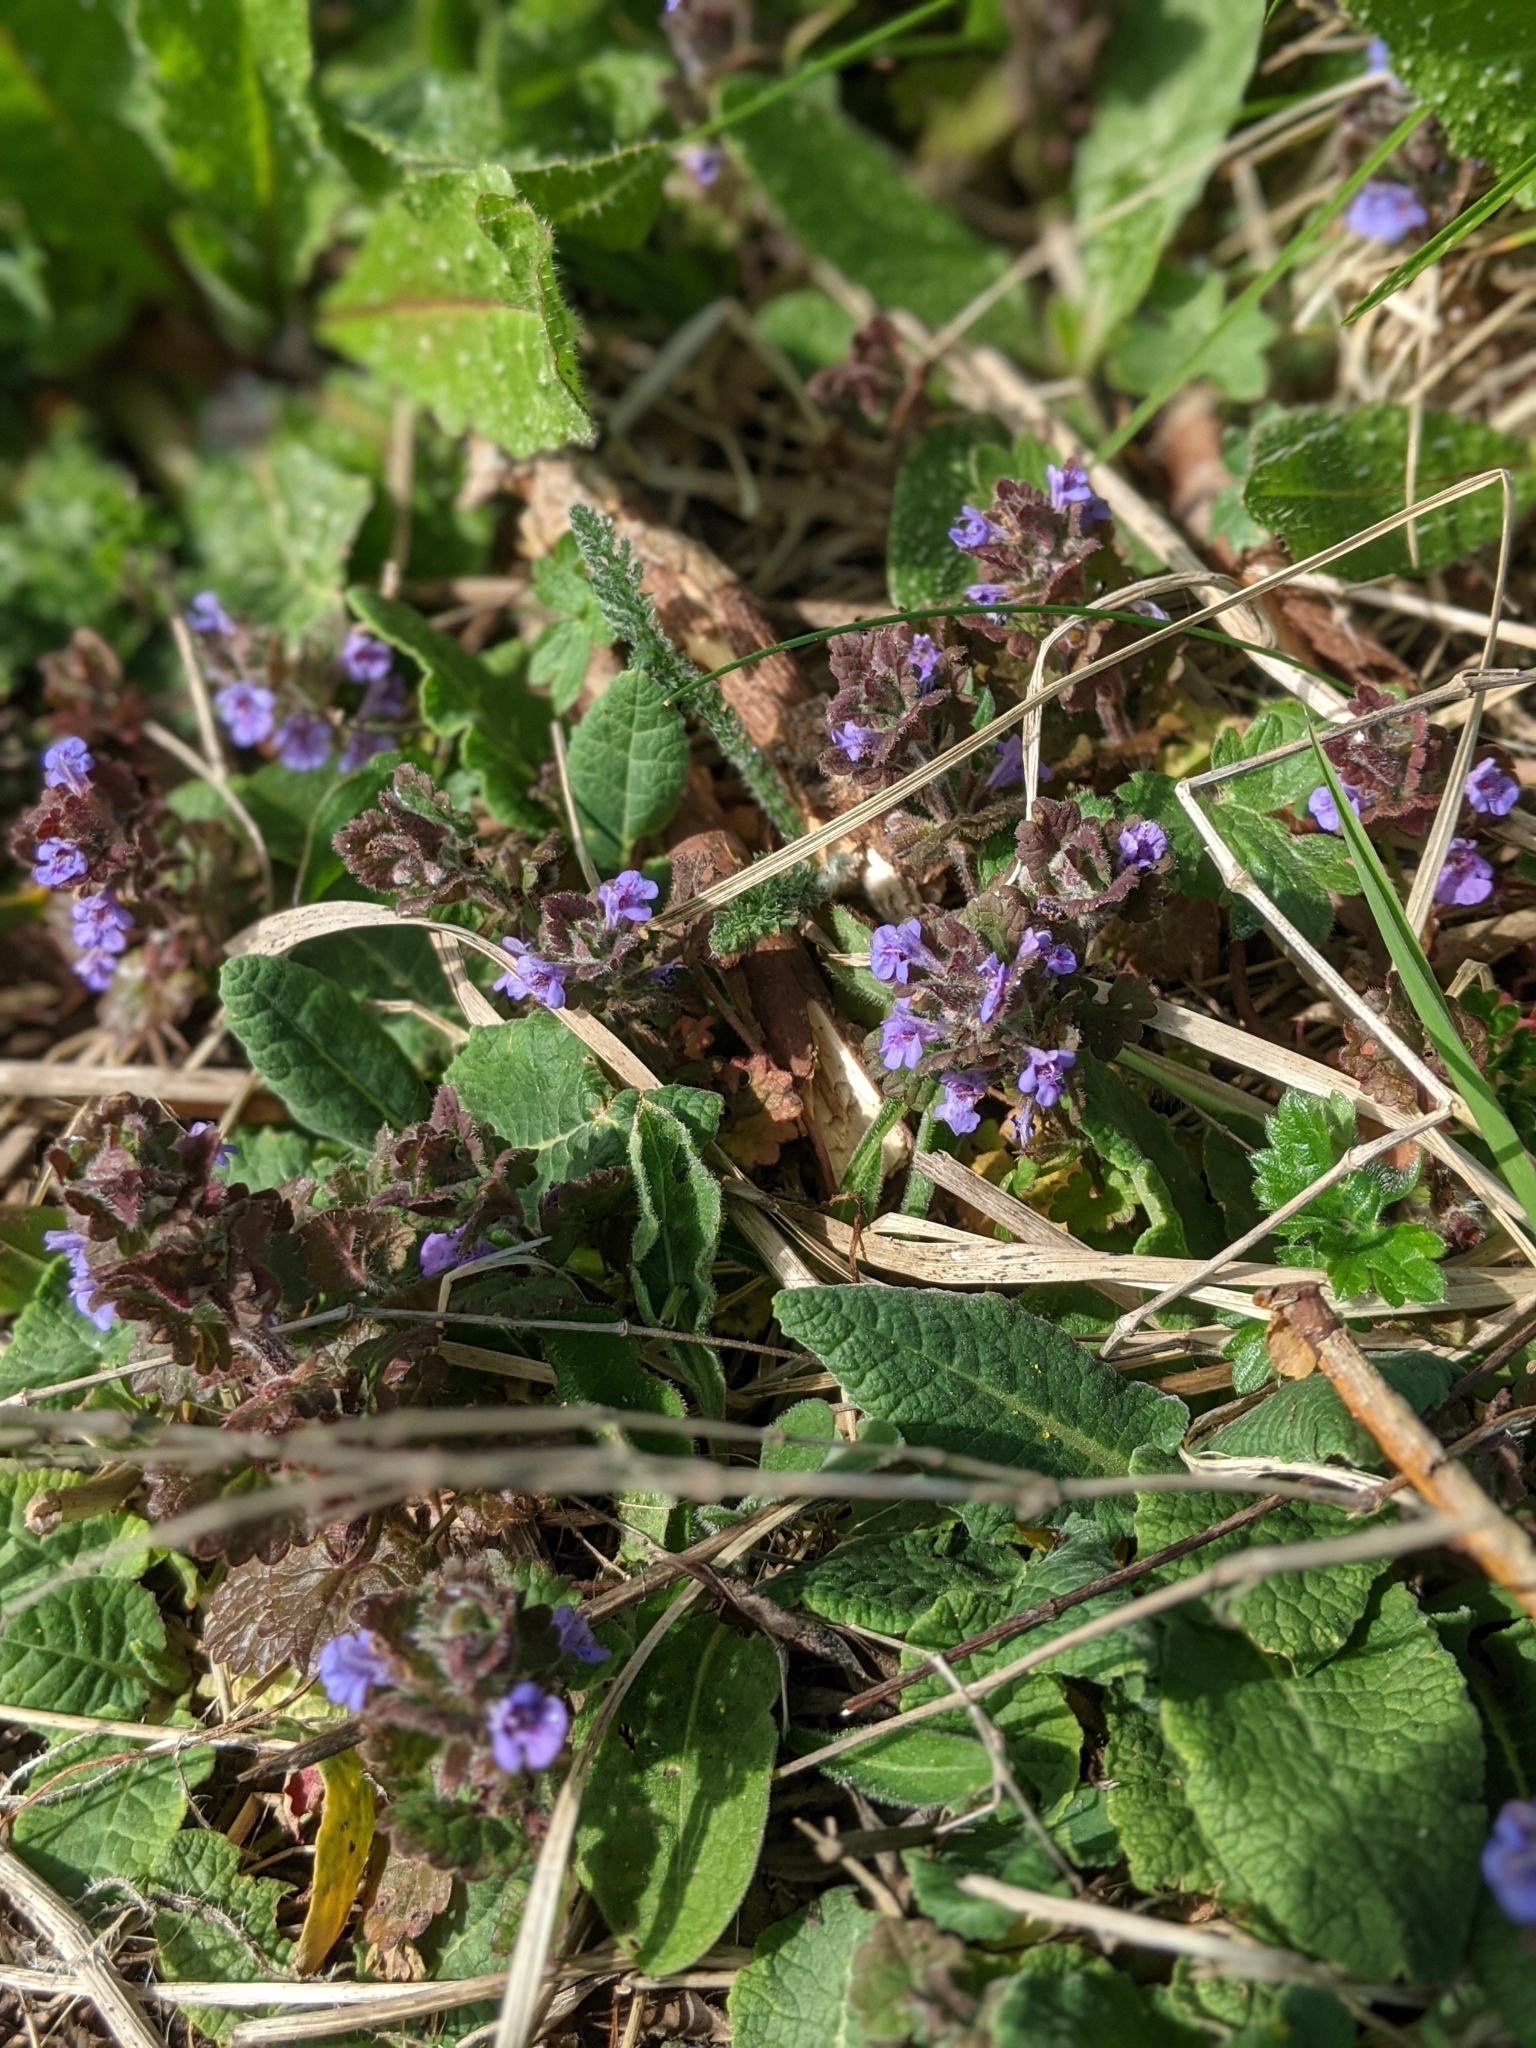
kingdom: Plantae
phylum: Tracheophyta
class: Magnoliopsida
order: Lamiales
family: Lamiaceae
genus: Glechoma
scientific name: Glechoma hederacea
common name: Ground ivy
